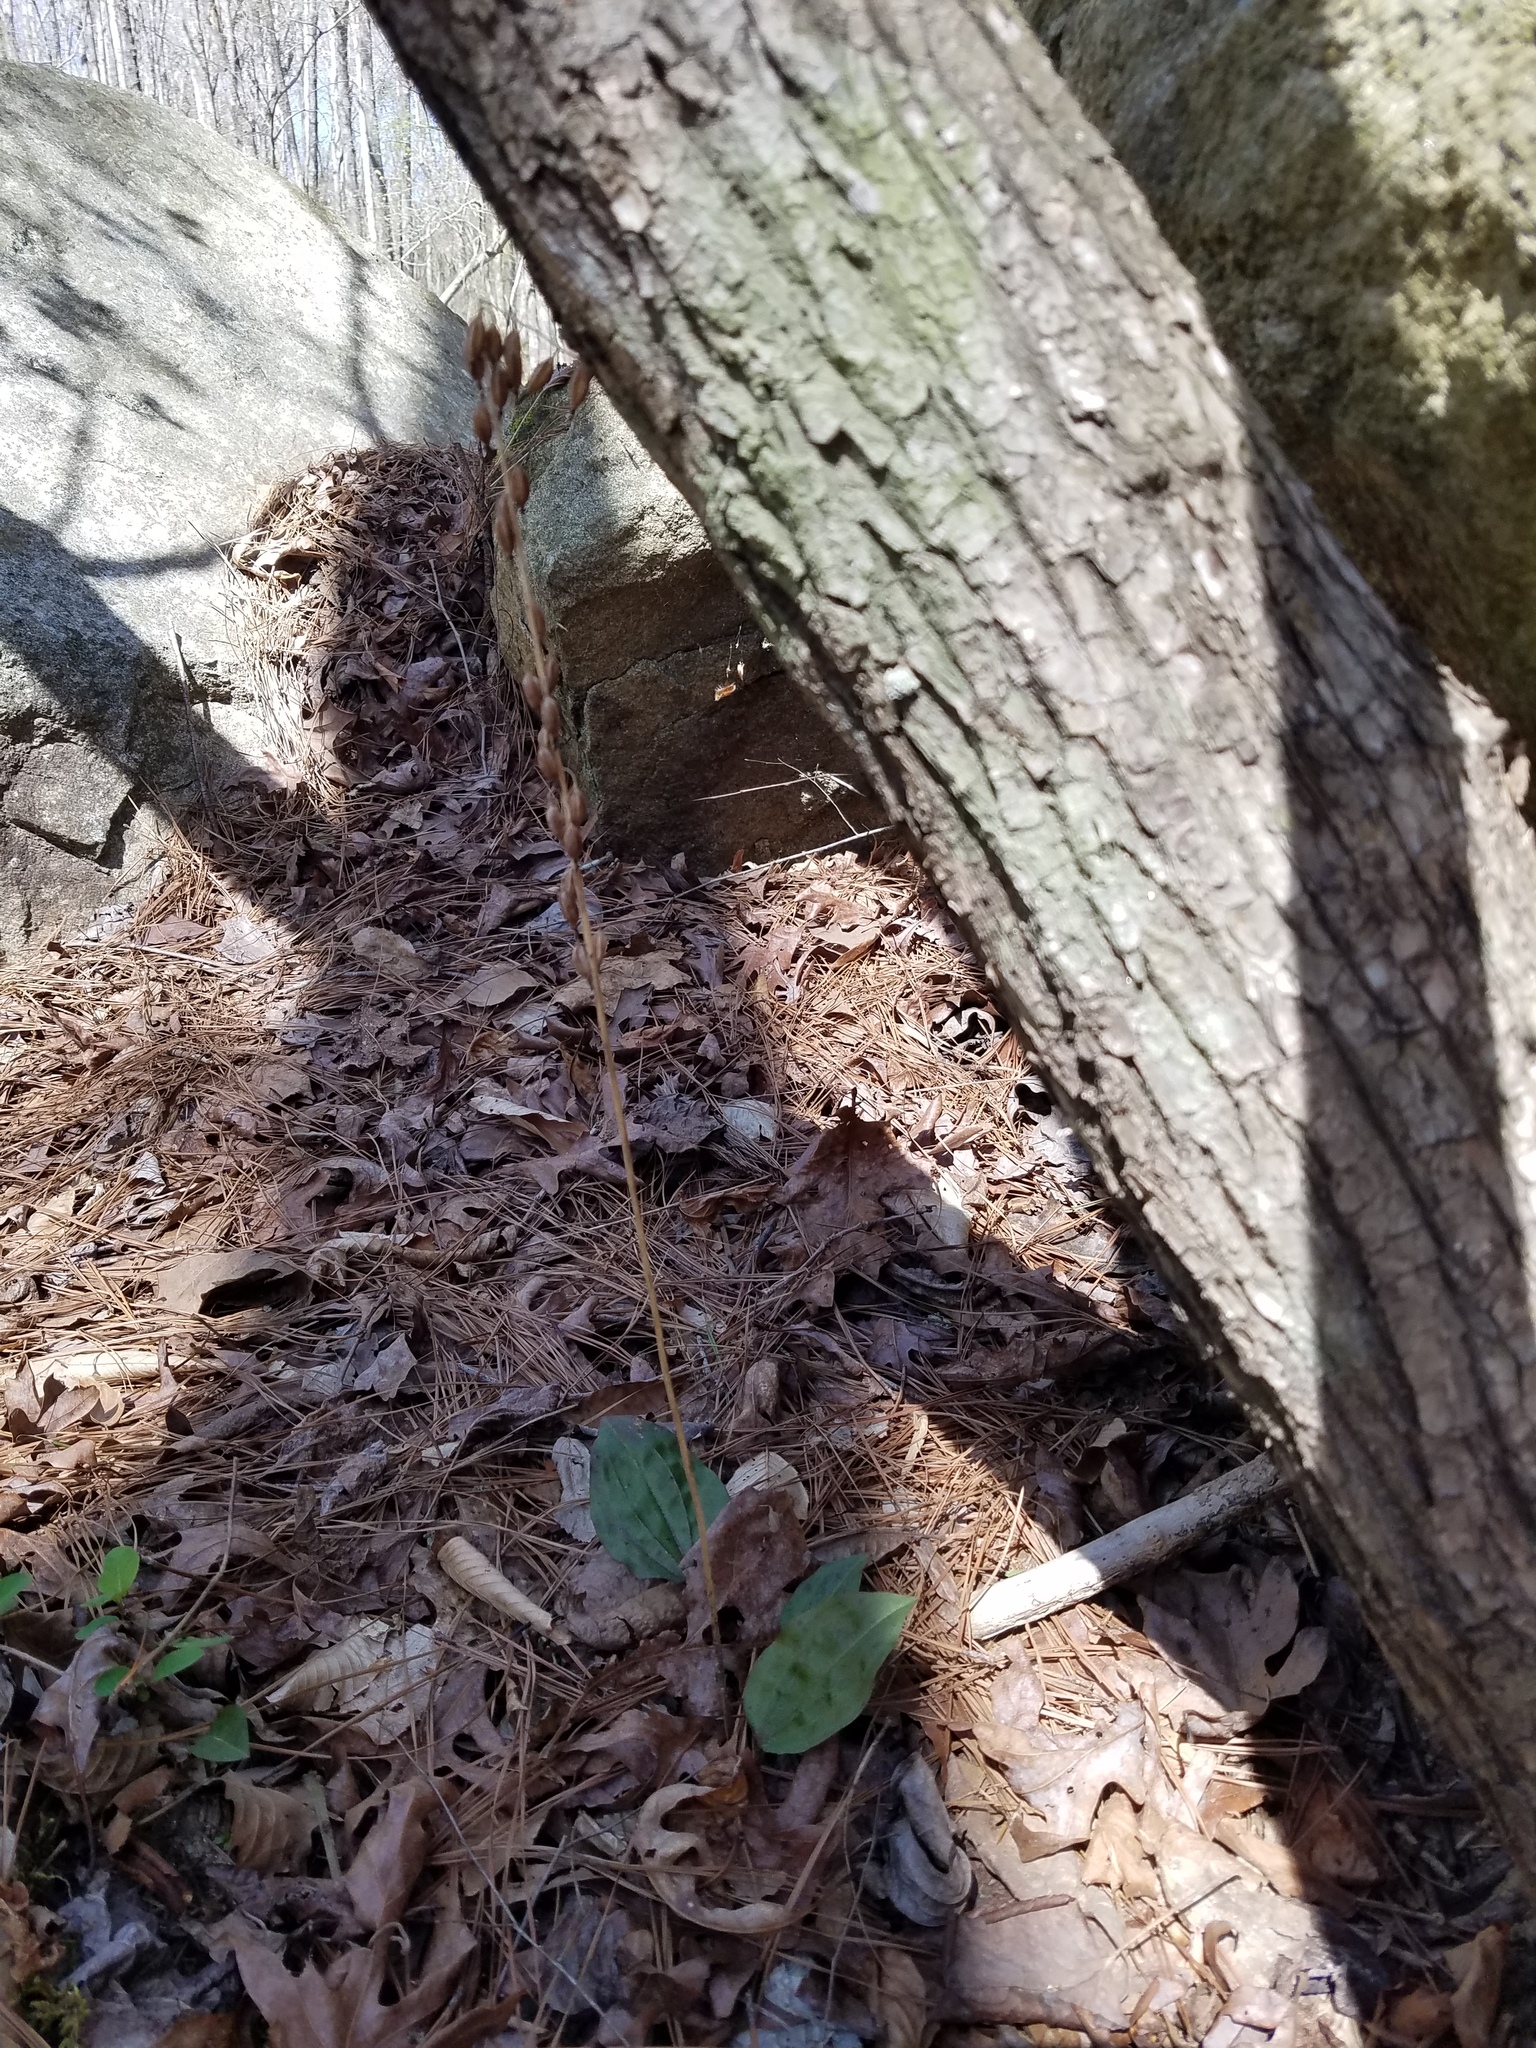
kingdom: Plantae
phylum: Tracheophyta
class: Liliopsida
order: Asparagales
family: Orchidaceae
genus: Tipularia
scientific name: Tipularia discolor
